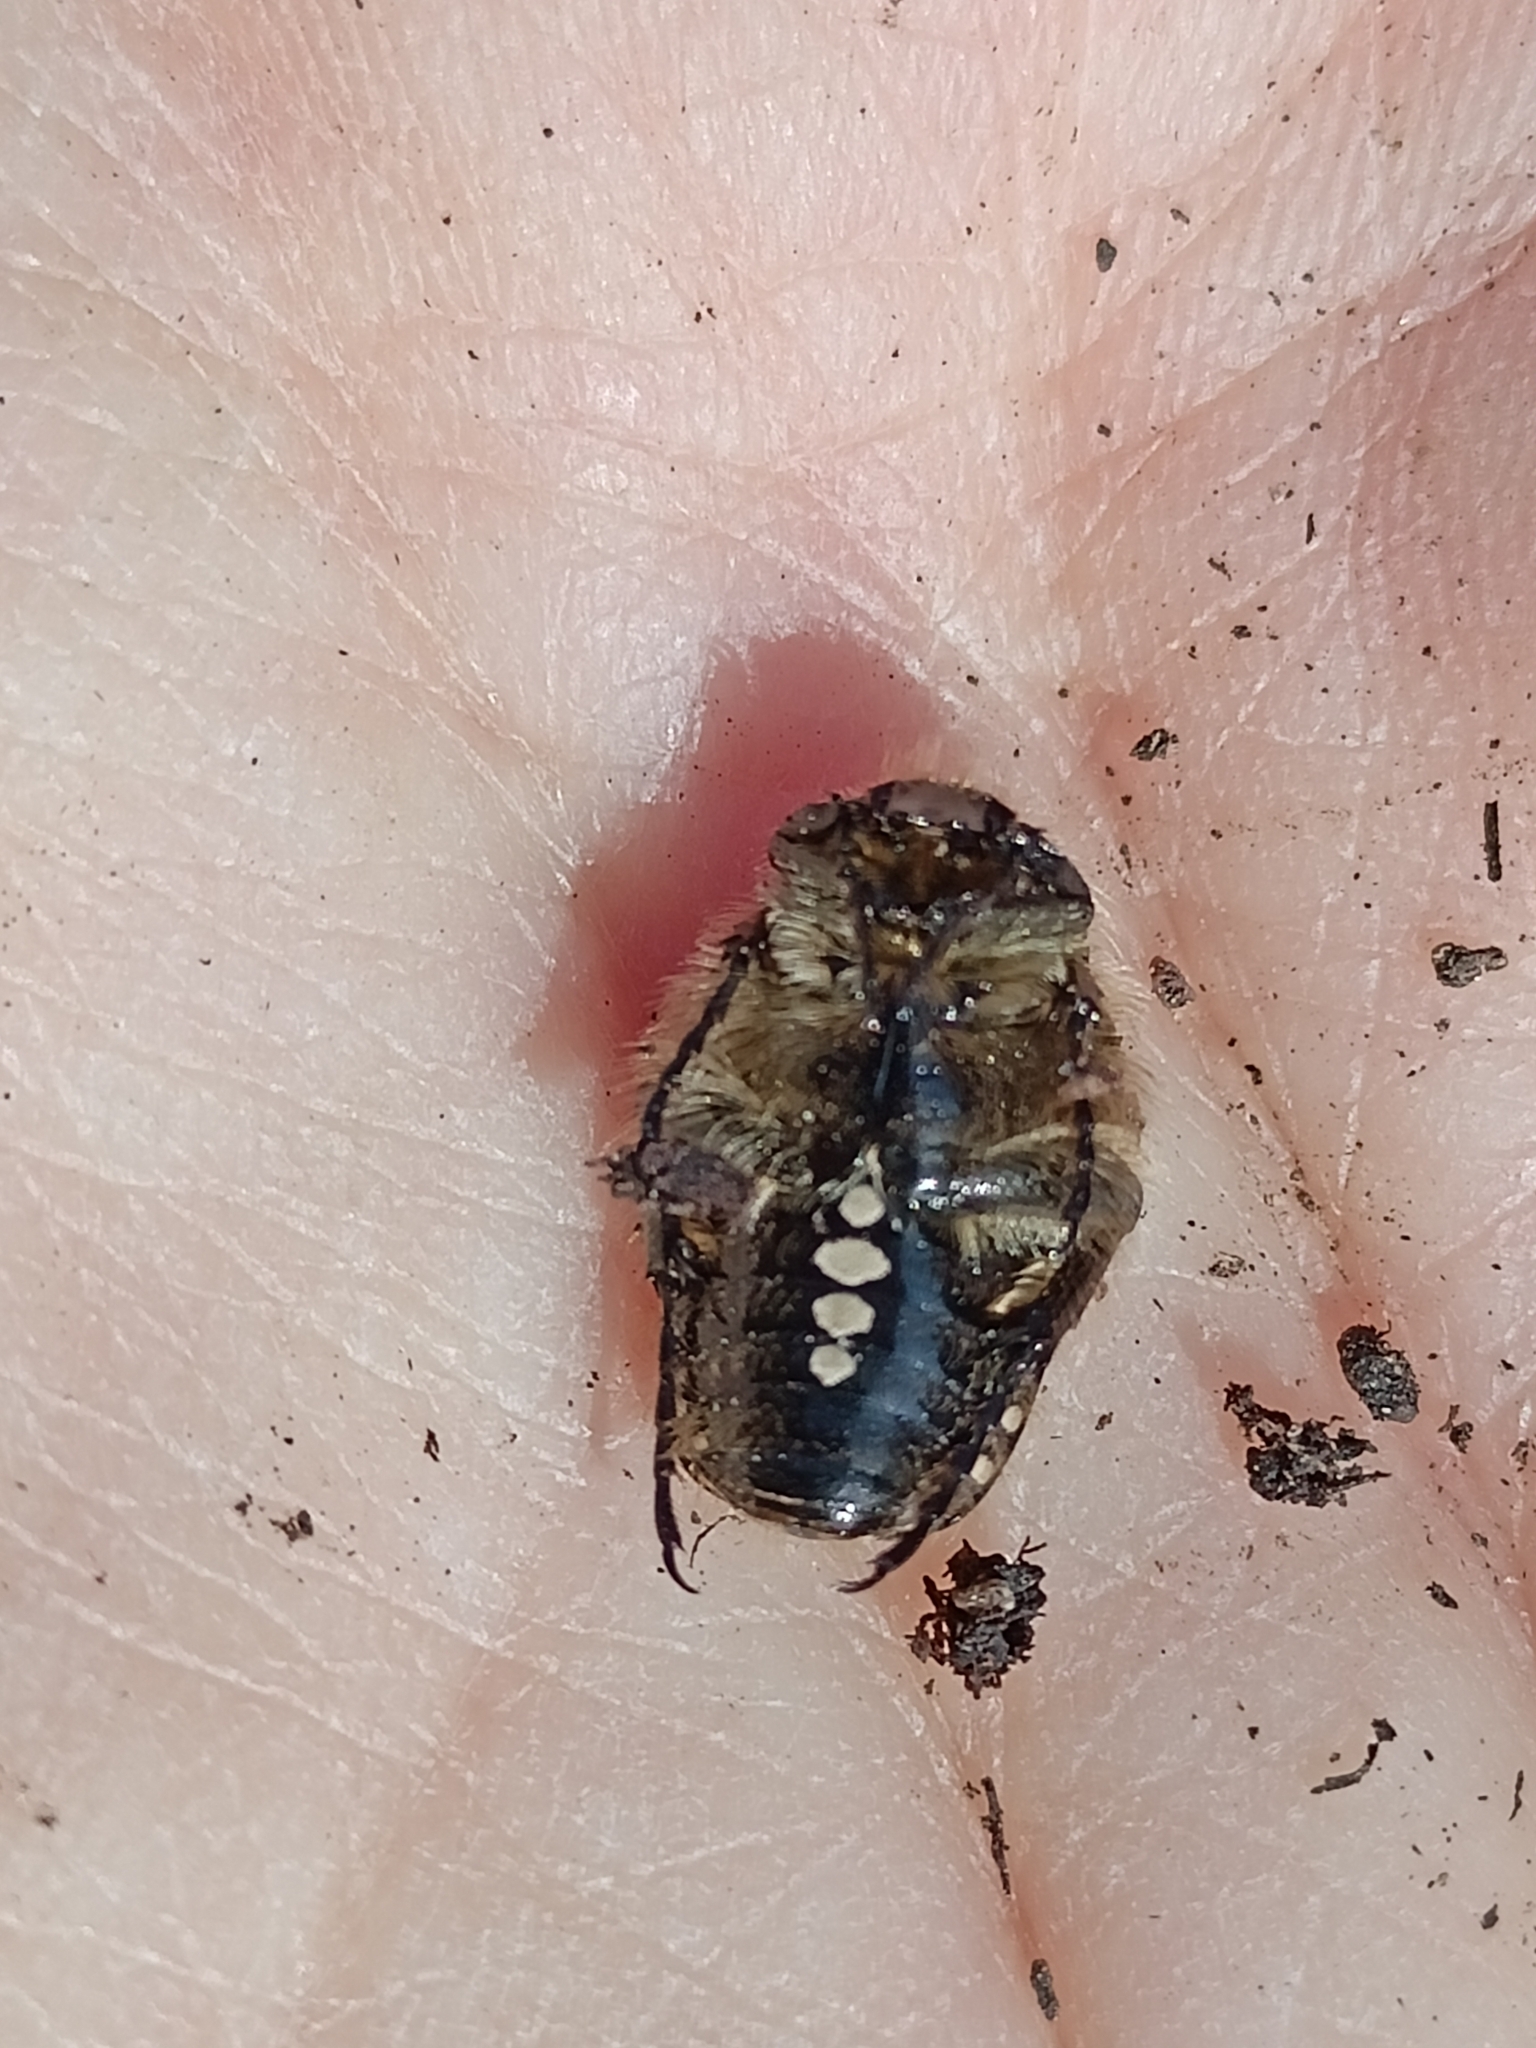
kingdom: Animalia
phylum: Arthropoda
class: Insecta
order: Coleoptera
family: Scarabaeidae
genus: Oxythyrea
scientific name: Oxythyrea funesta
